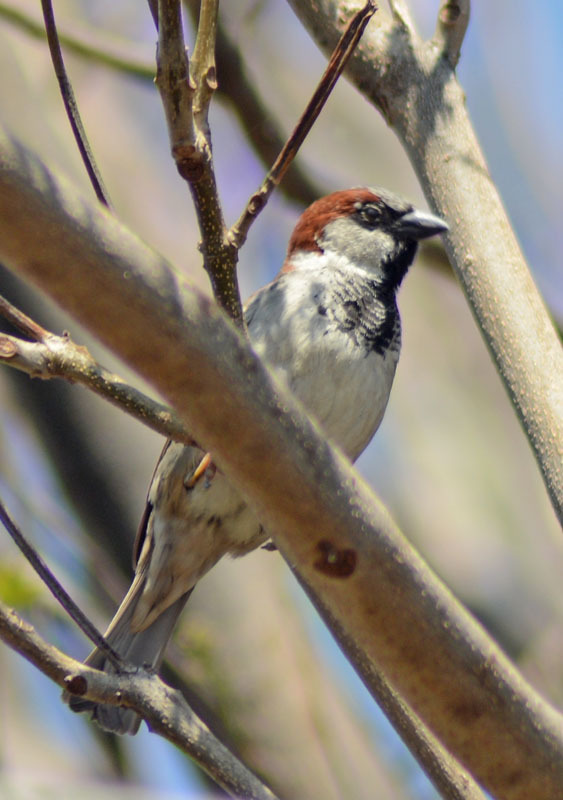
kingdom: Animalia
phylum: Chordata
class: Aves
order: Passeriformes
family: Passeridae
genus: Passer
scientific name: Passer domesticus
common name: House sparrow
